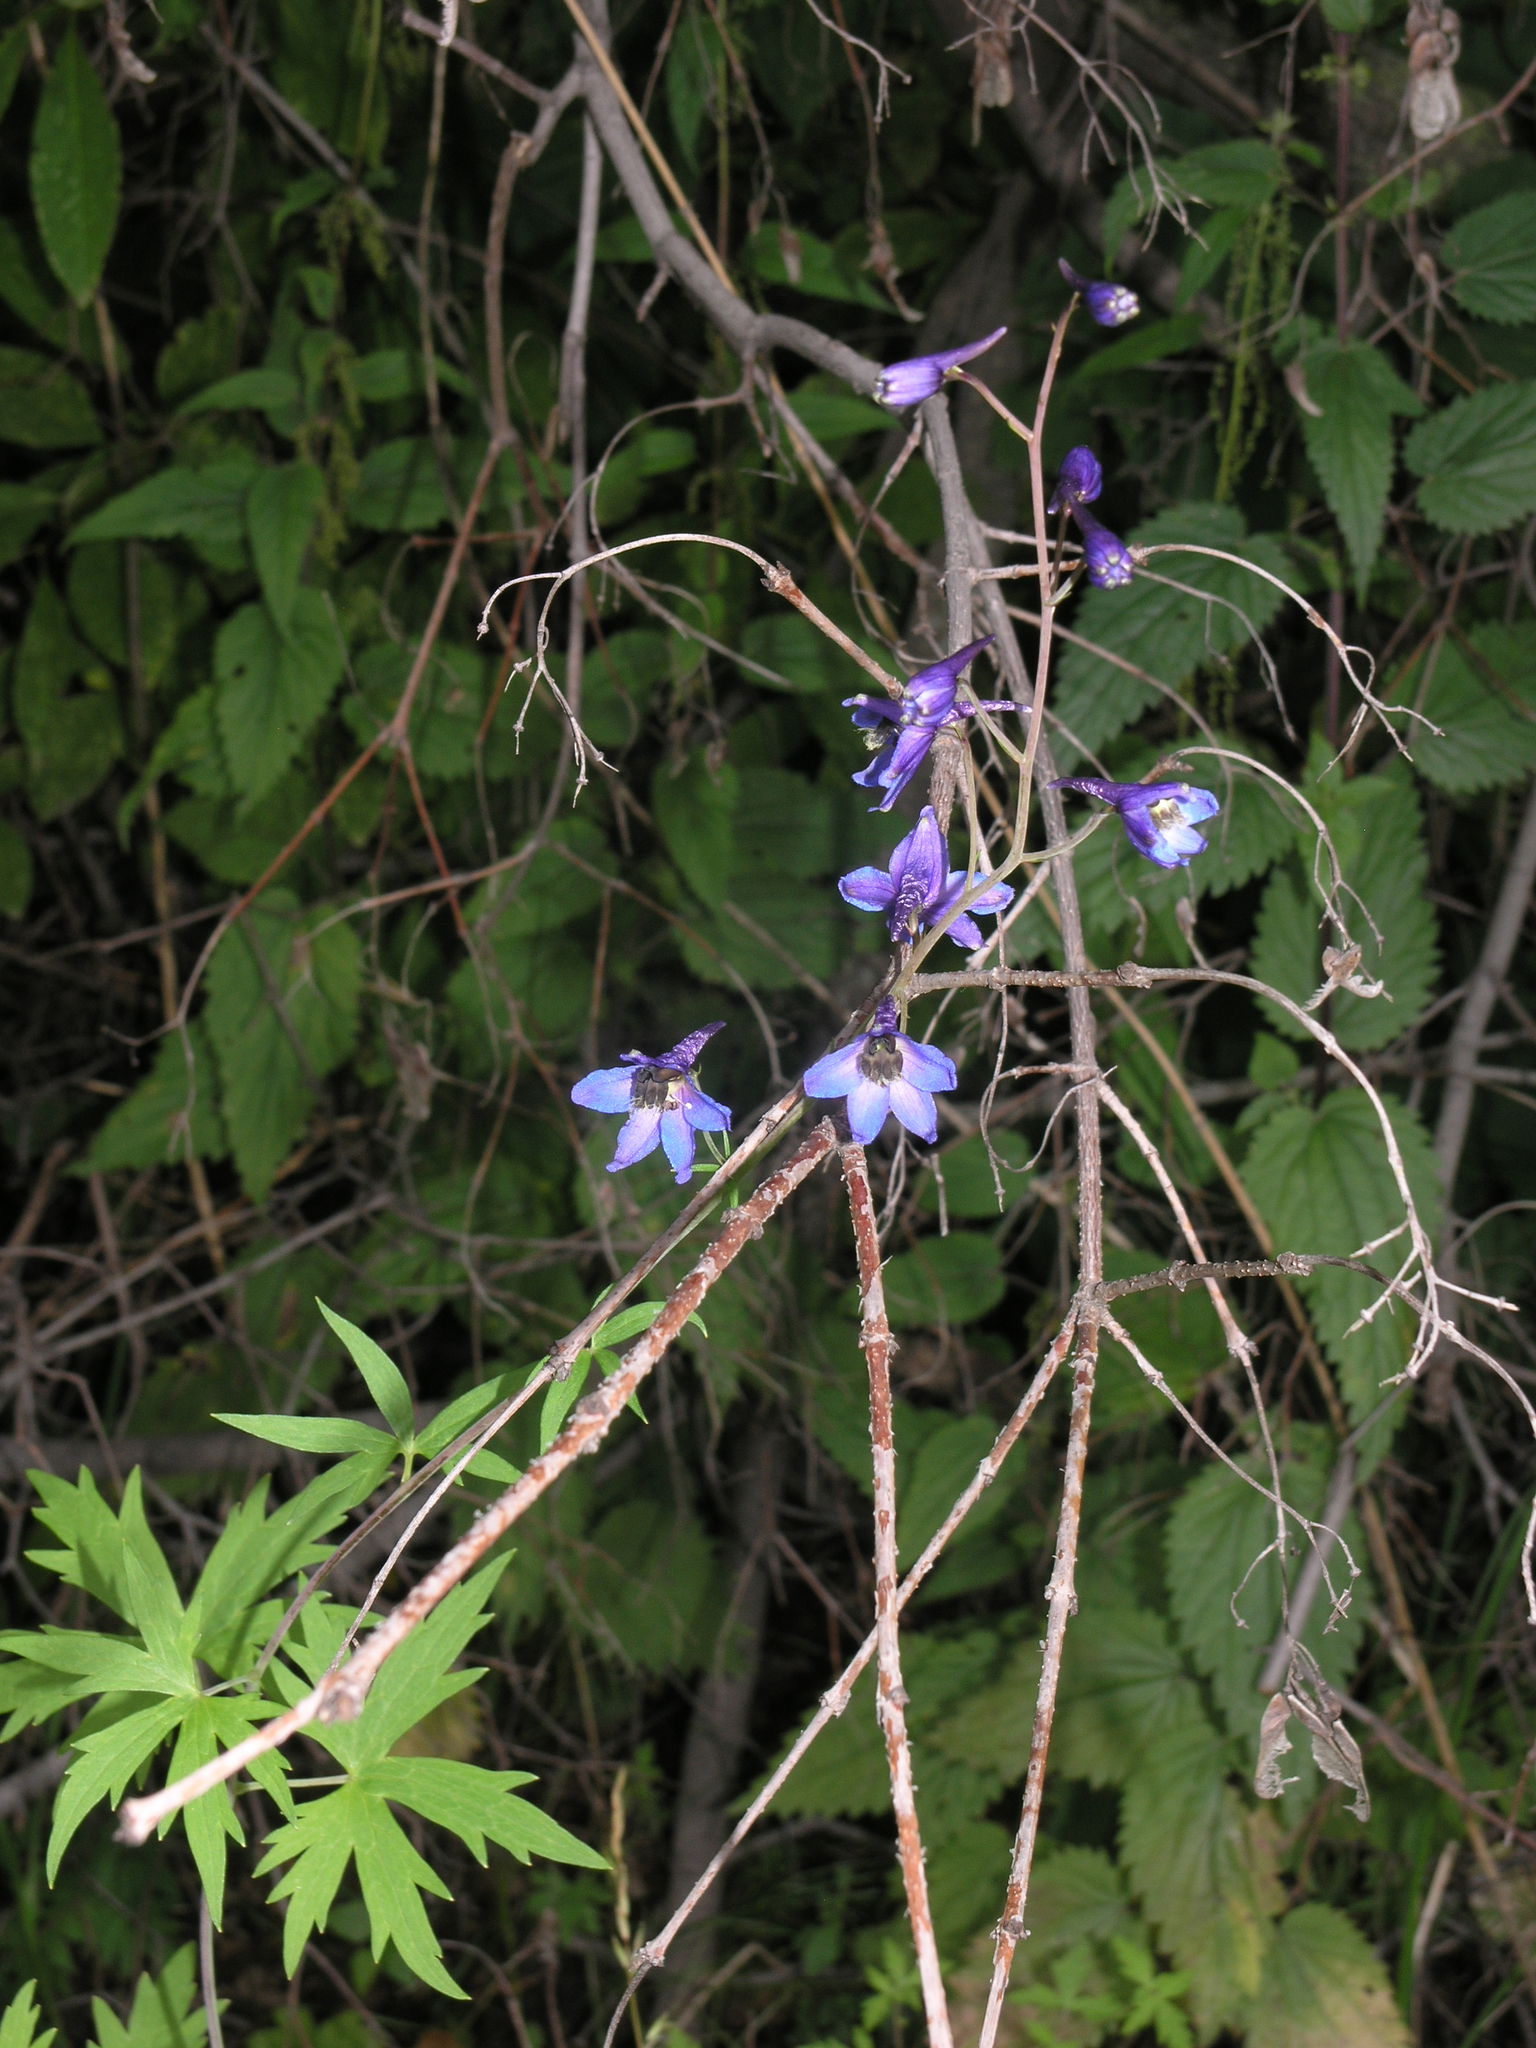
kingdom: Plantae
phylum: Tracheophyta
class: Magnoliopsida
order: Ranunculales
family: Ranunculaceae
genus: Delphinium
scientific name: Delphinium elatum
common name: Candle larkspur
